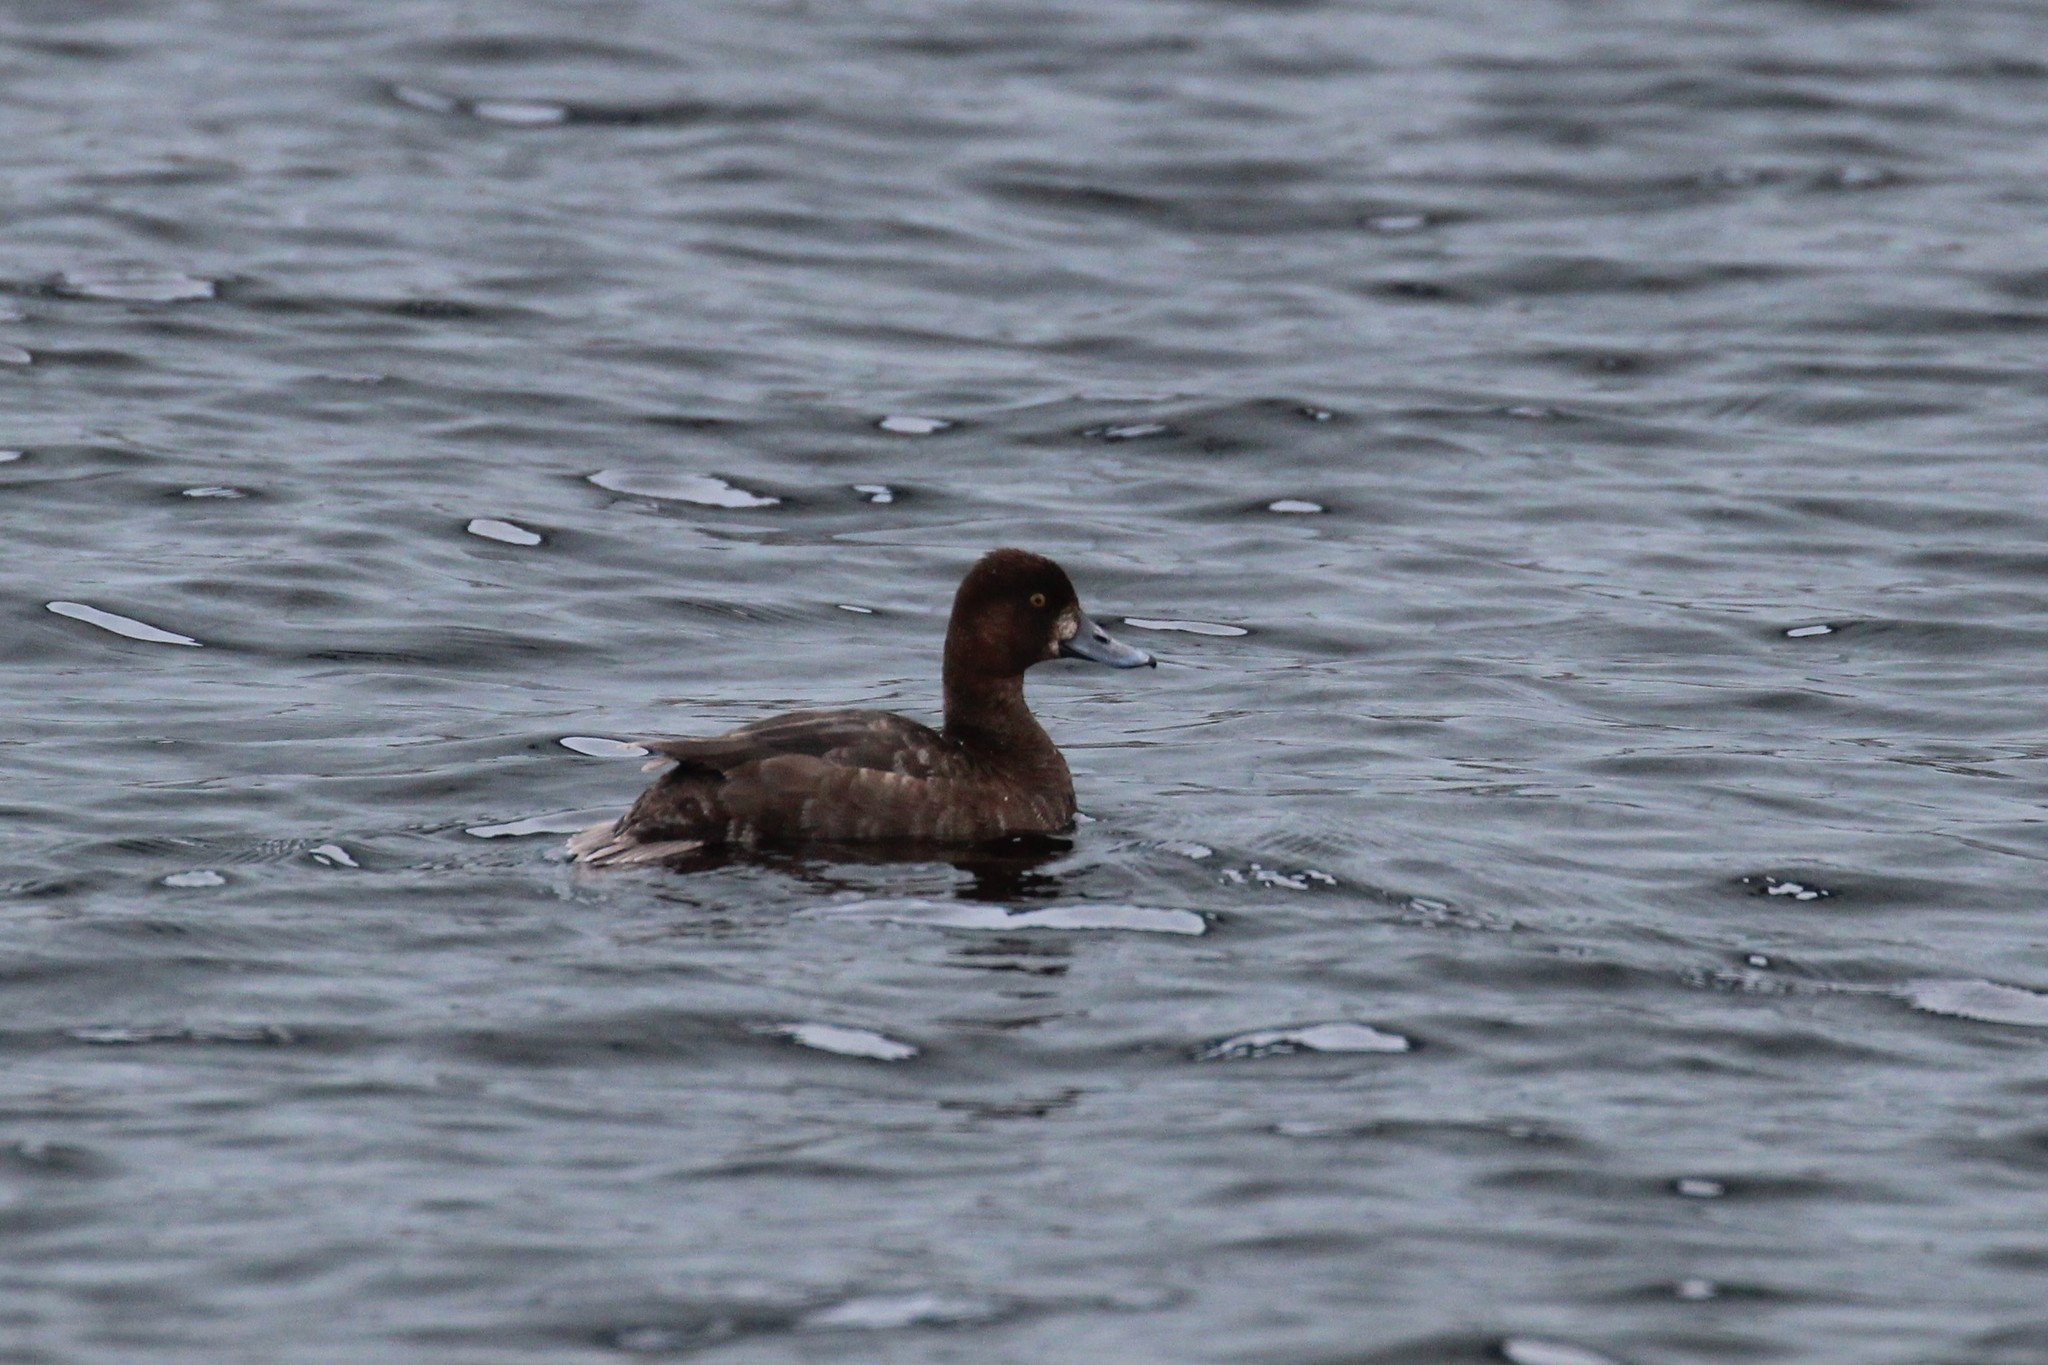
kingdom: Animalia
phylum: Chordata
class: Aves
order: Anseriformes
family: Anatidae
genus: Aythya
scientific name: Aythya affinis
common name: Lesser scaup
